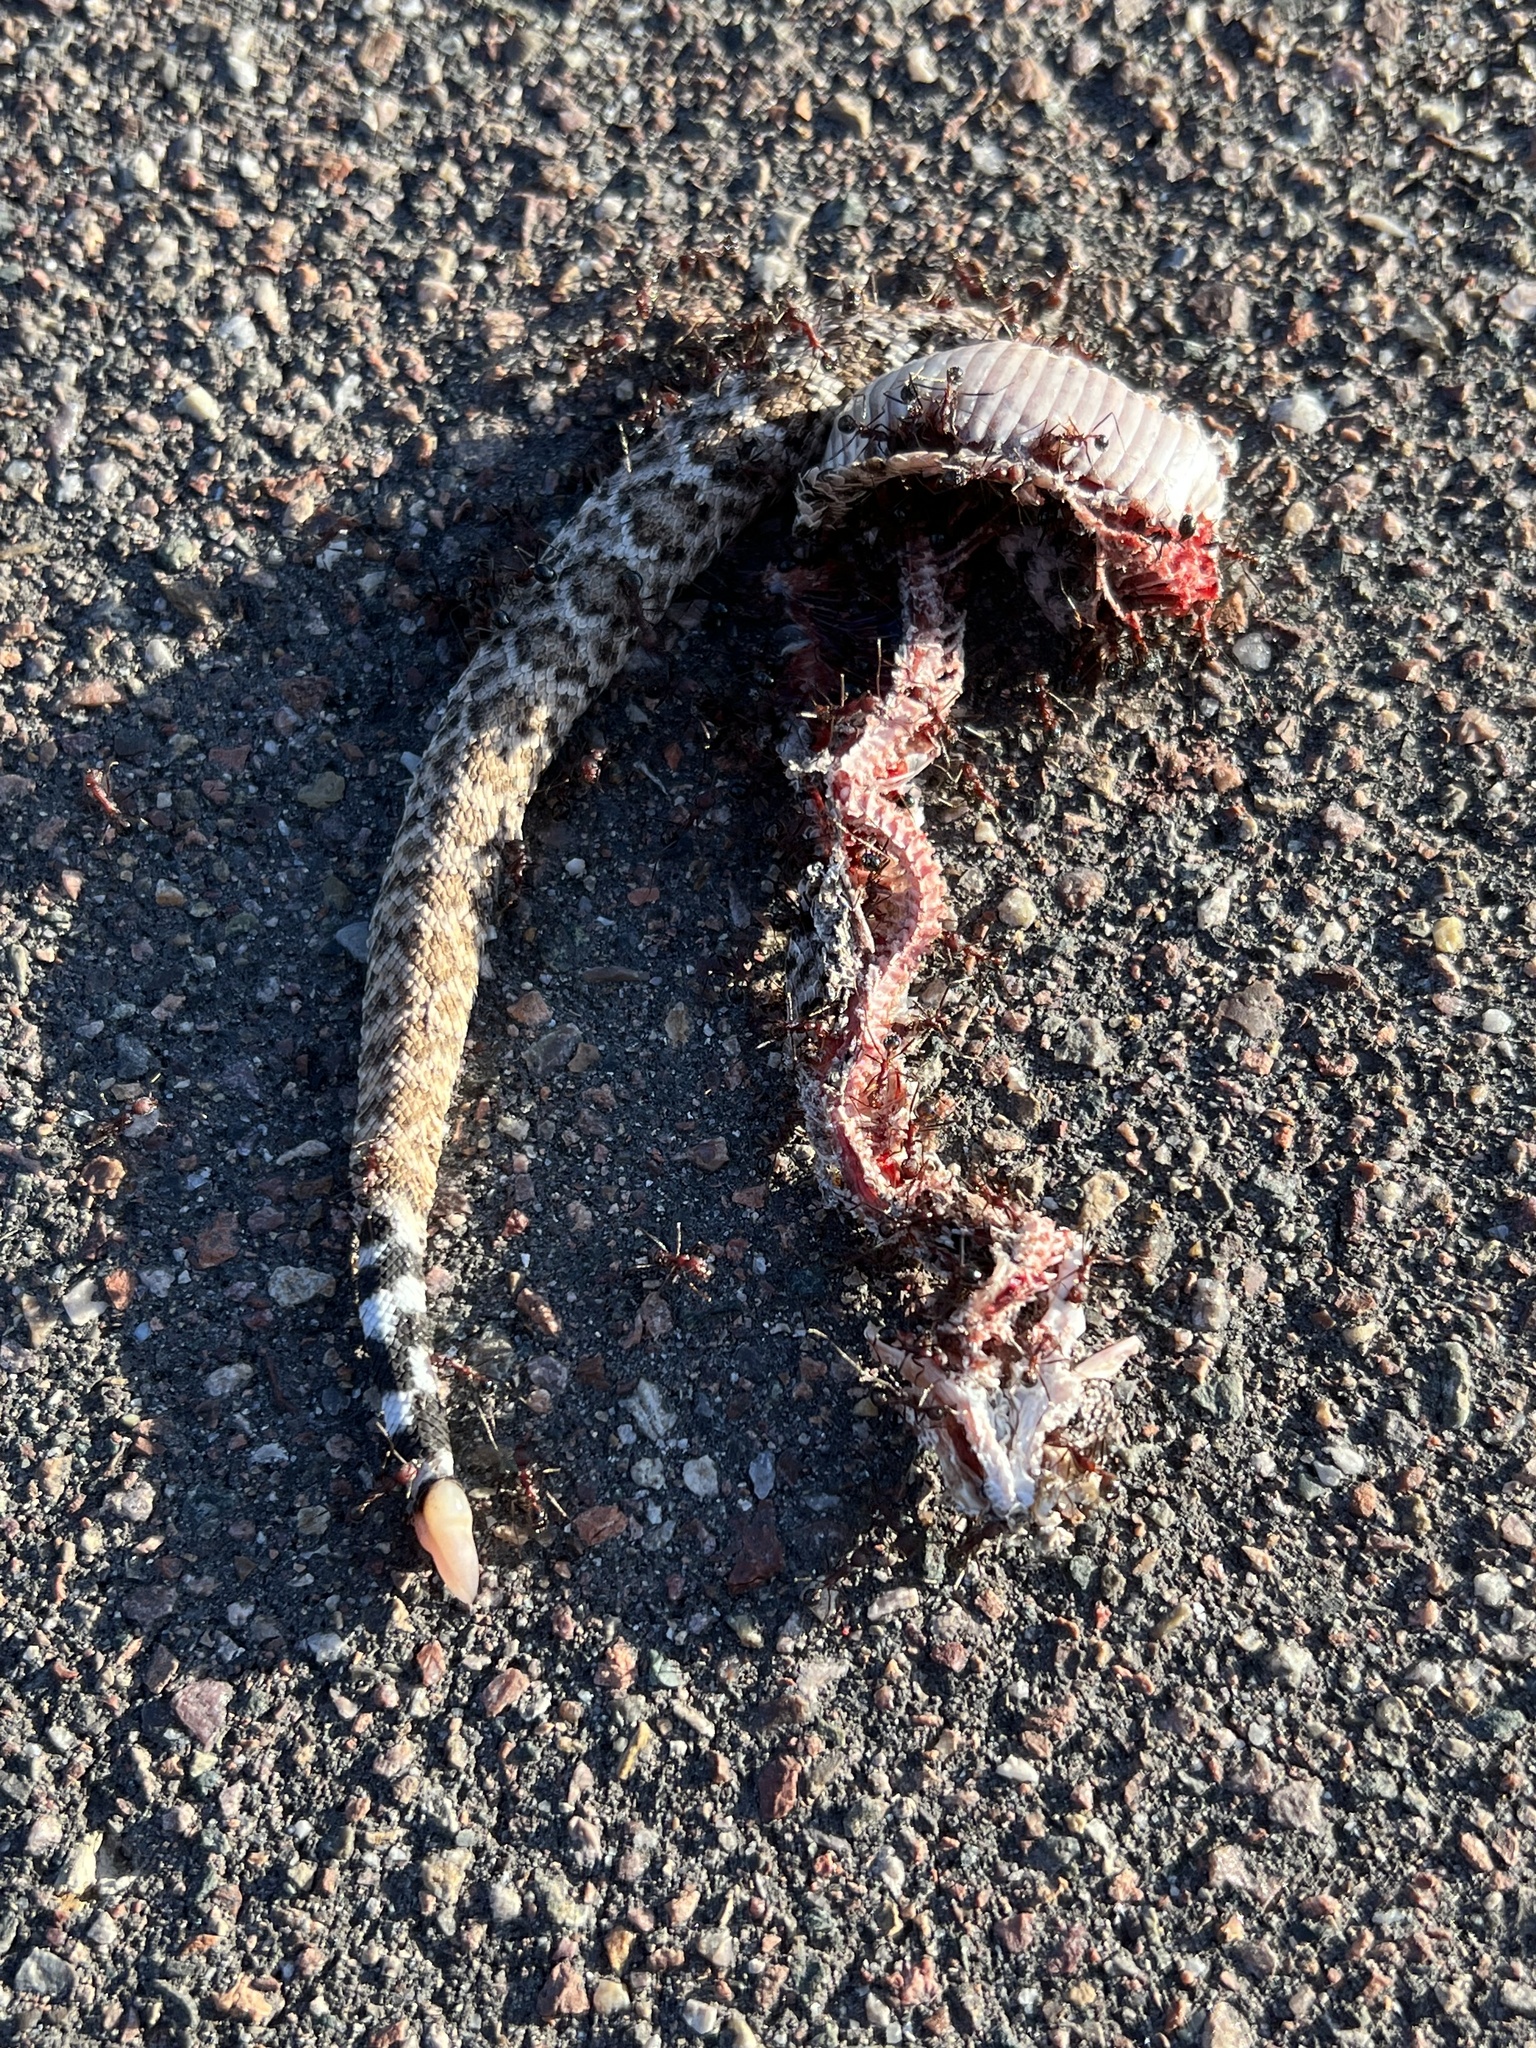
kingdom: Animalia
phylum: Chordata
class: Squamata
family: Viperidae
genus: Crotalus
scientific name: Crotalus atrox
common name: Western diamond-backed rattlesnake
